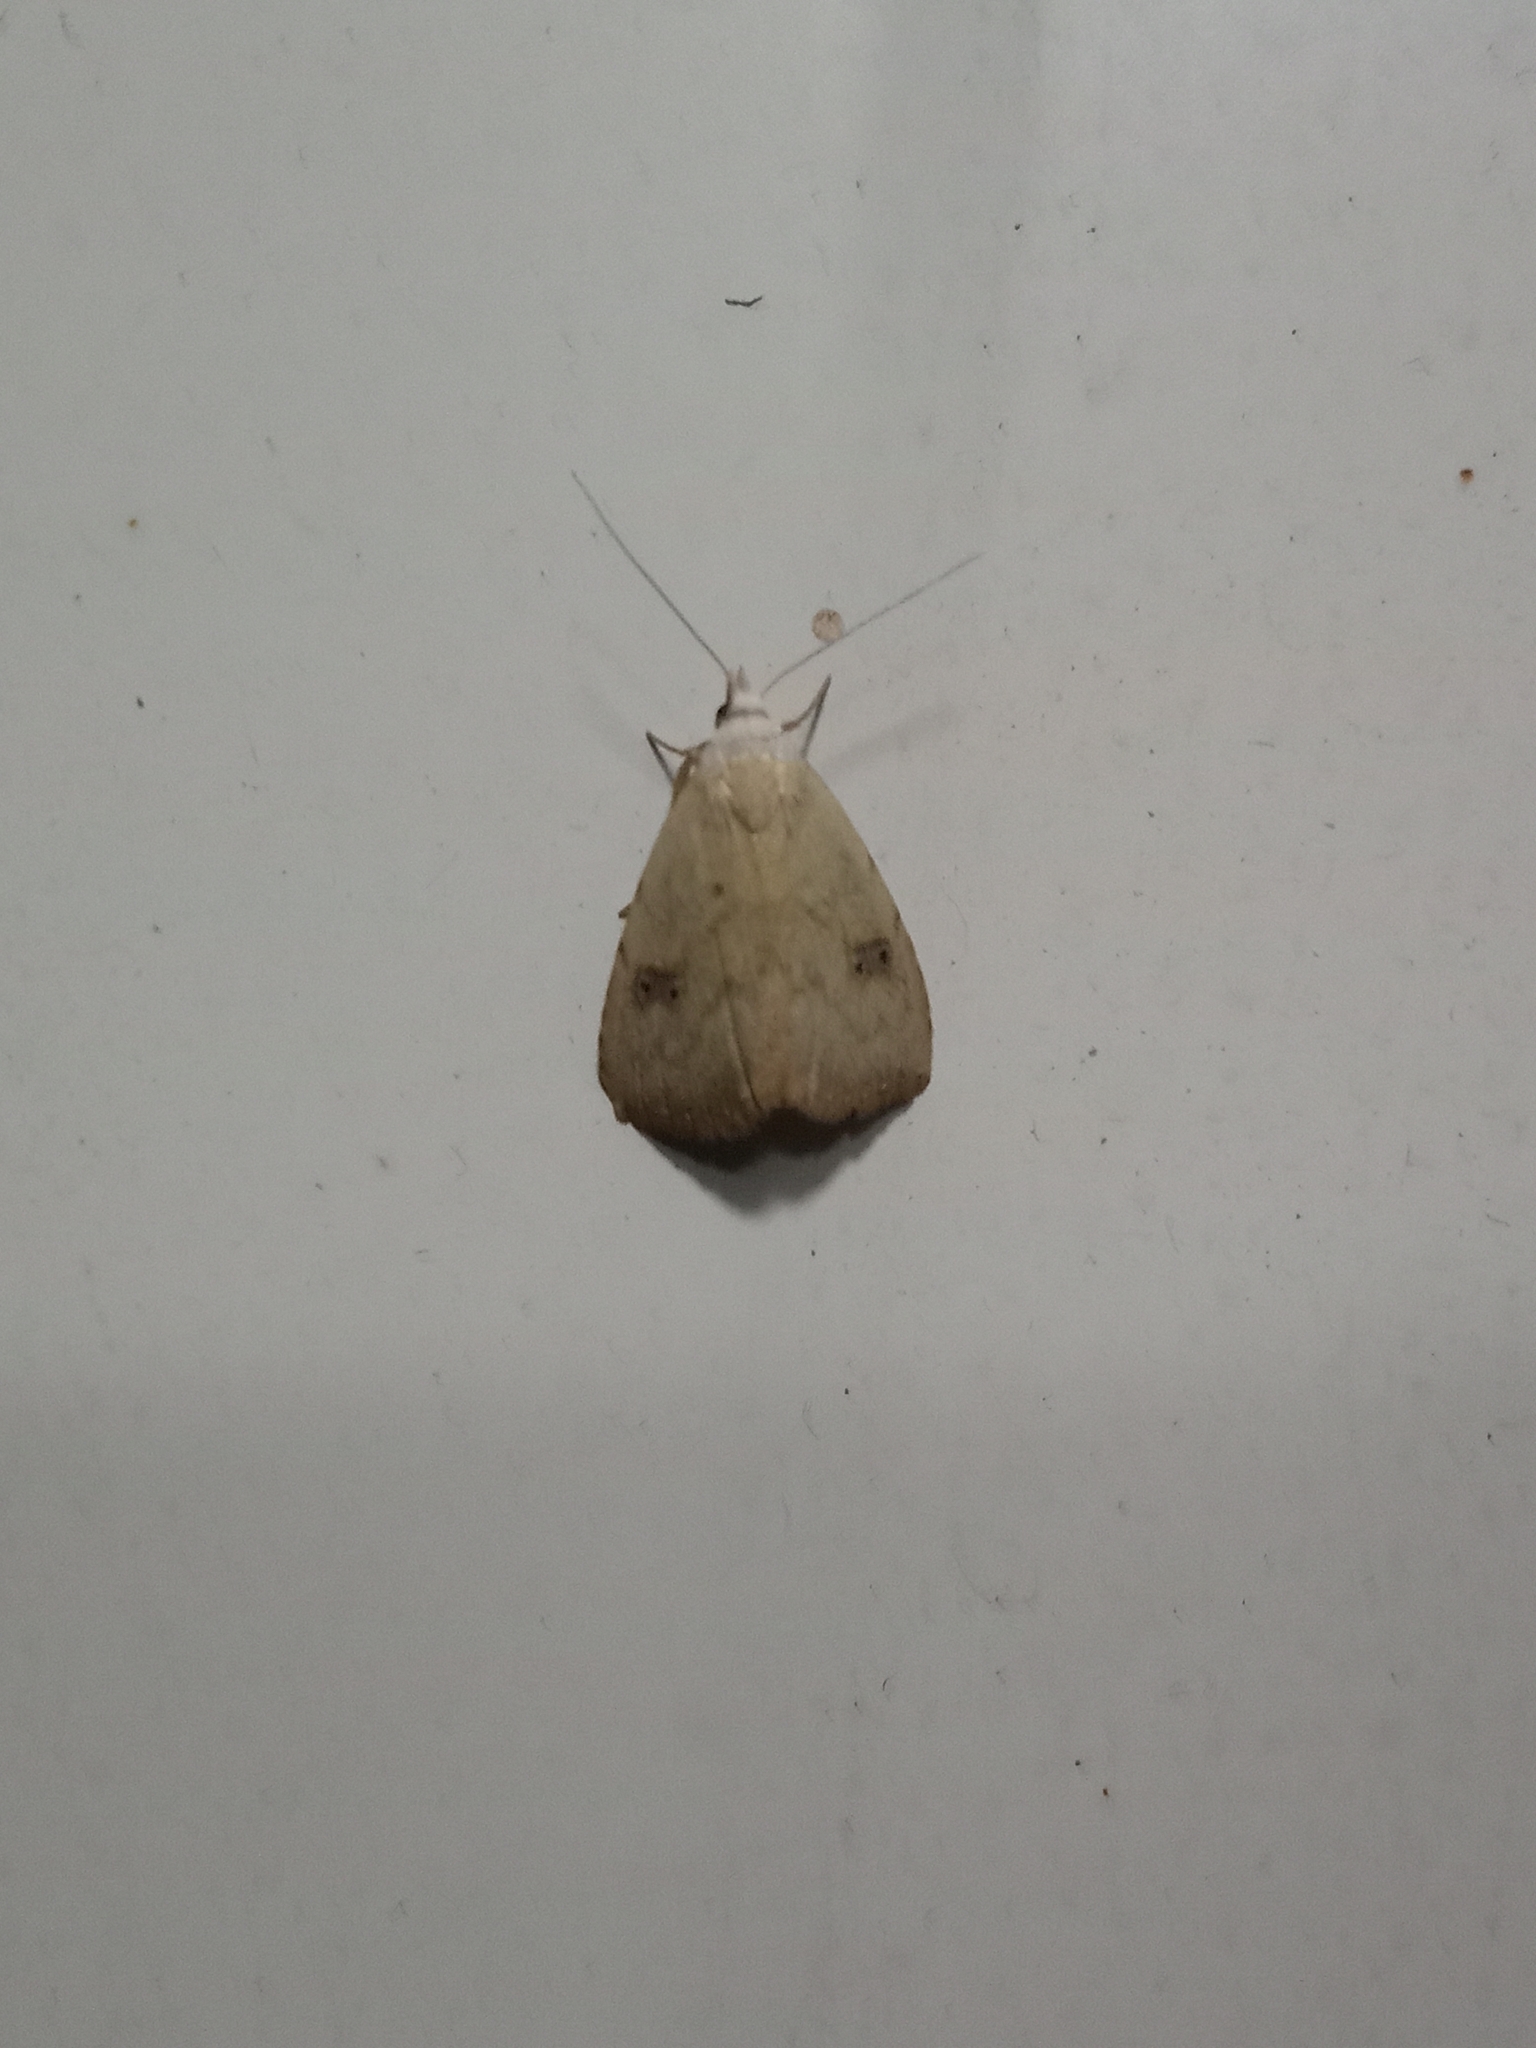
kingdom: Animalia
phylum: Arthropoda
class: Insecta
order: Lepidoptera
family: Erebidae
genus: Rivula
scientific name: Rivula sericealis
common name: Straw dot
